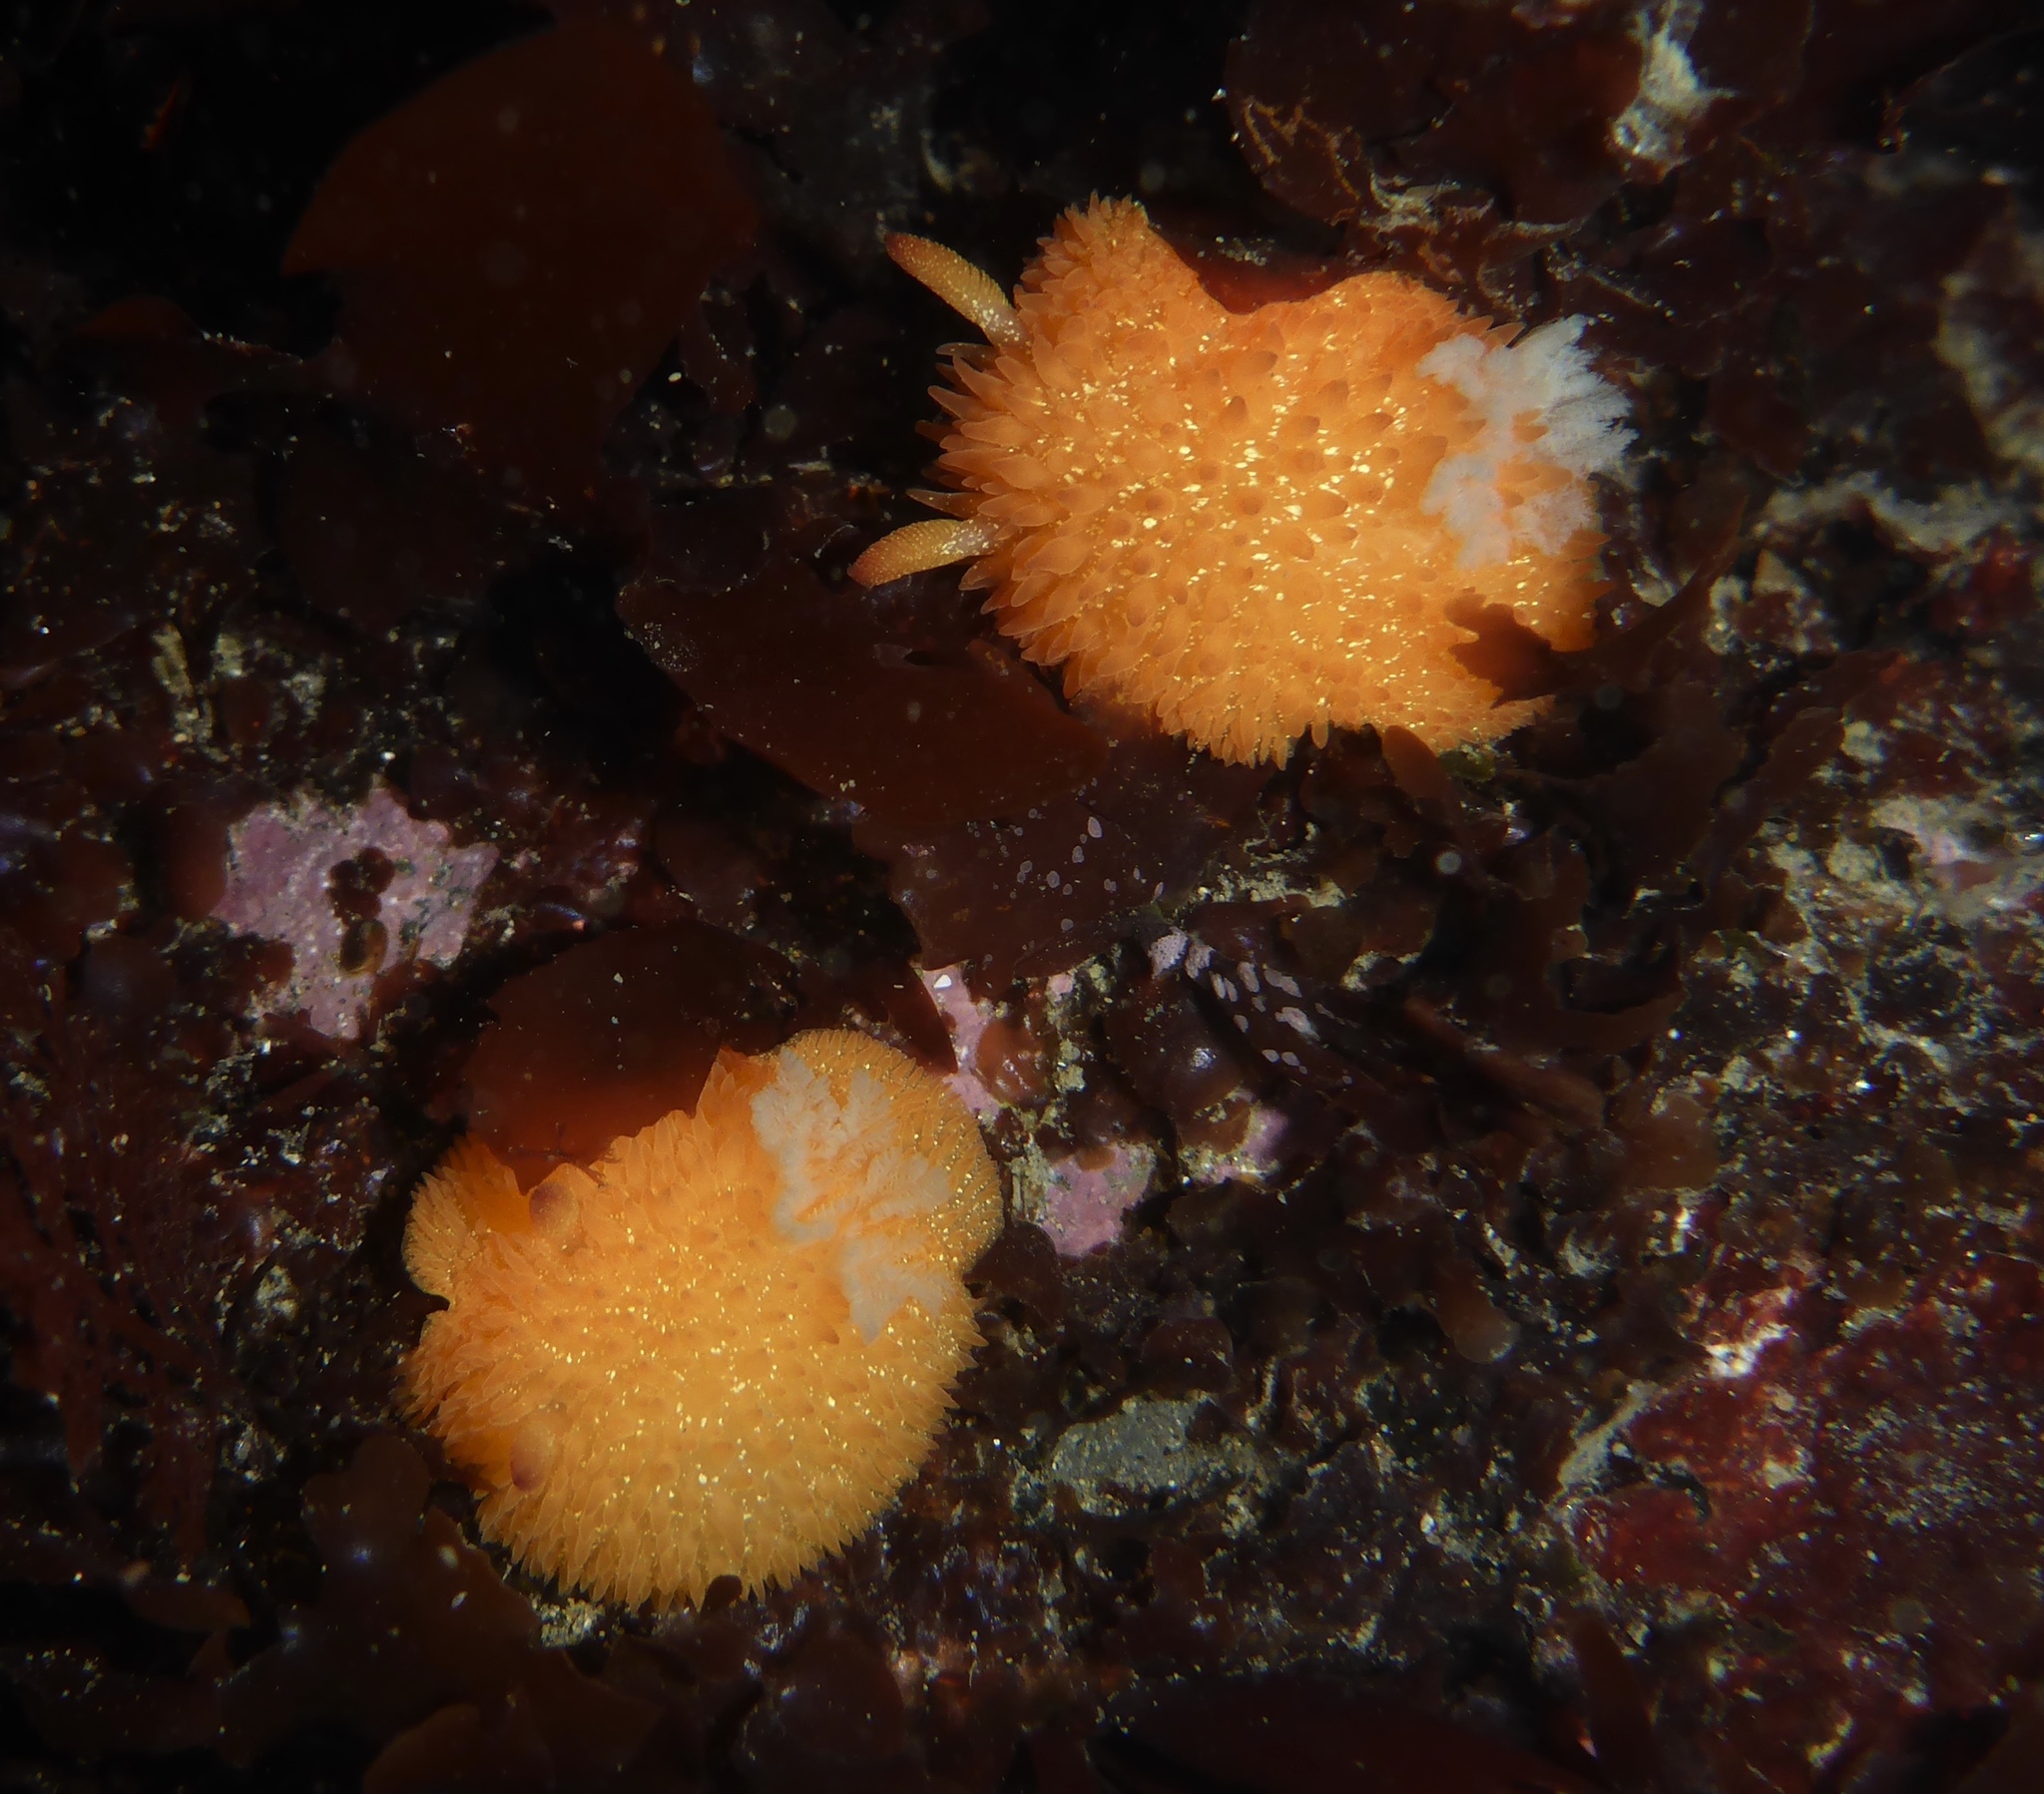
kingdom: Animalia
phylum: Mollusca
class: Gastropoda
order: Nudibranchia
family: Onchidorididae
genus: Acanthodoris
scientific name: Acanthodoris lutea
